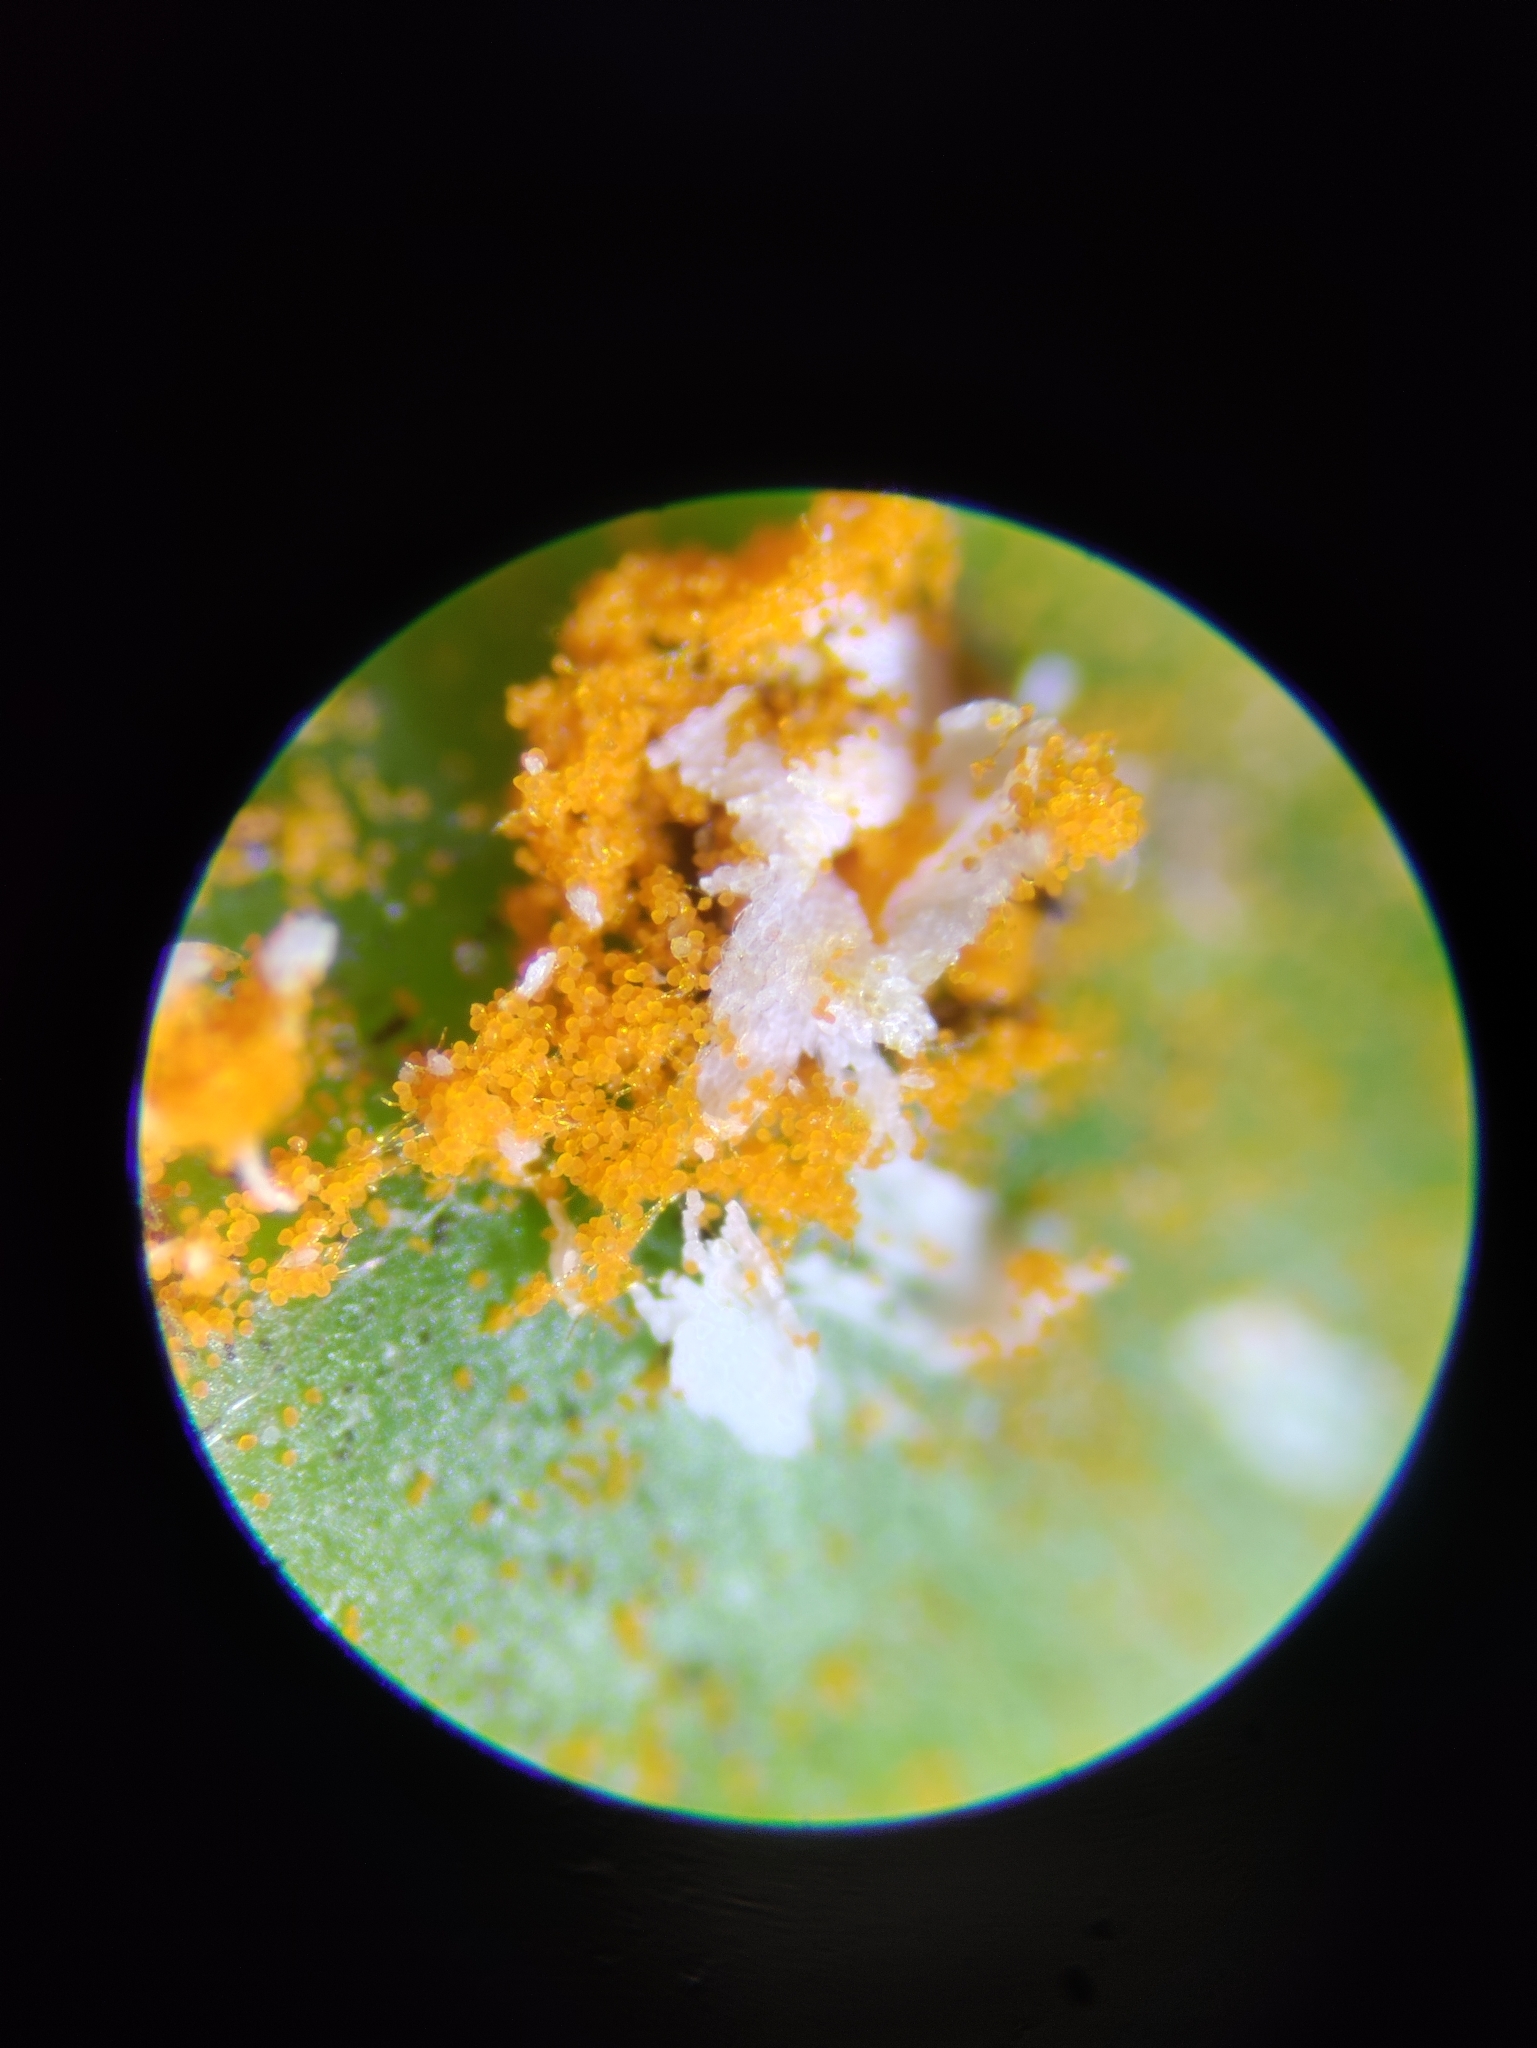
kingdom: Fungi
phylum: Basidiomycota
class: Pucciniomycetes
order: Pucciniales
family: Gymnosporangiaceae
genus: Gymnosporangium
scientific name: Gymnosporangium clavipes
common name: Quince rust
